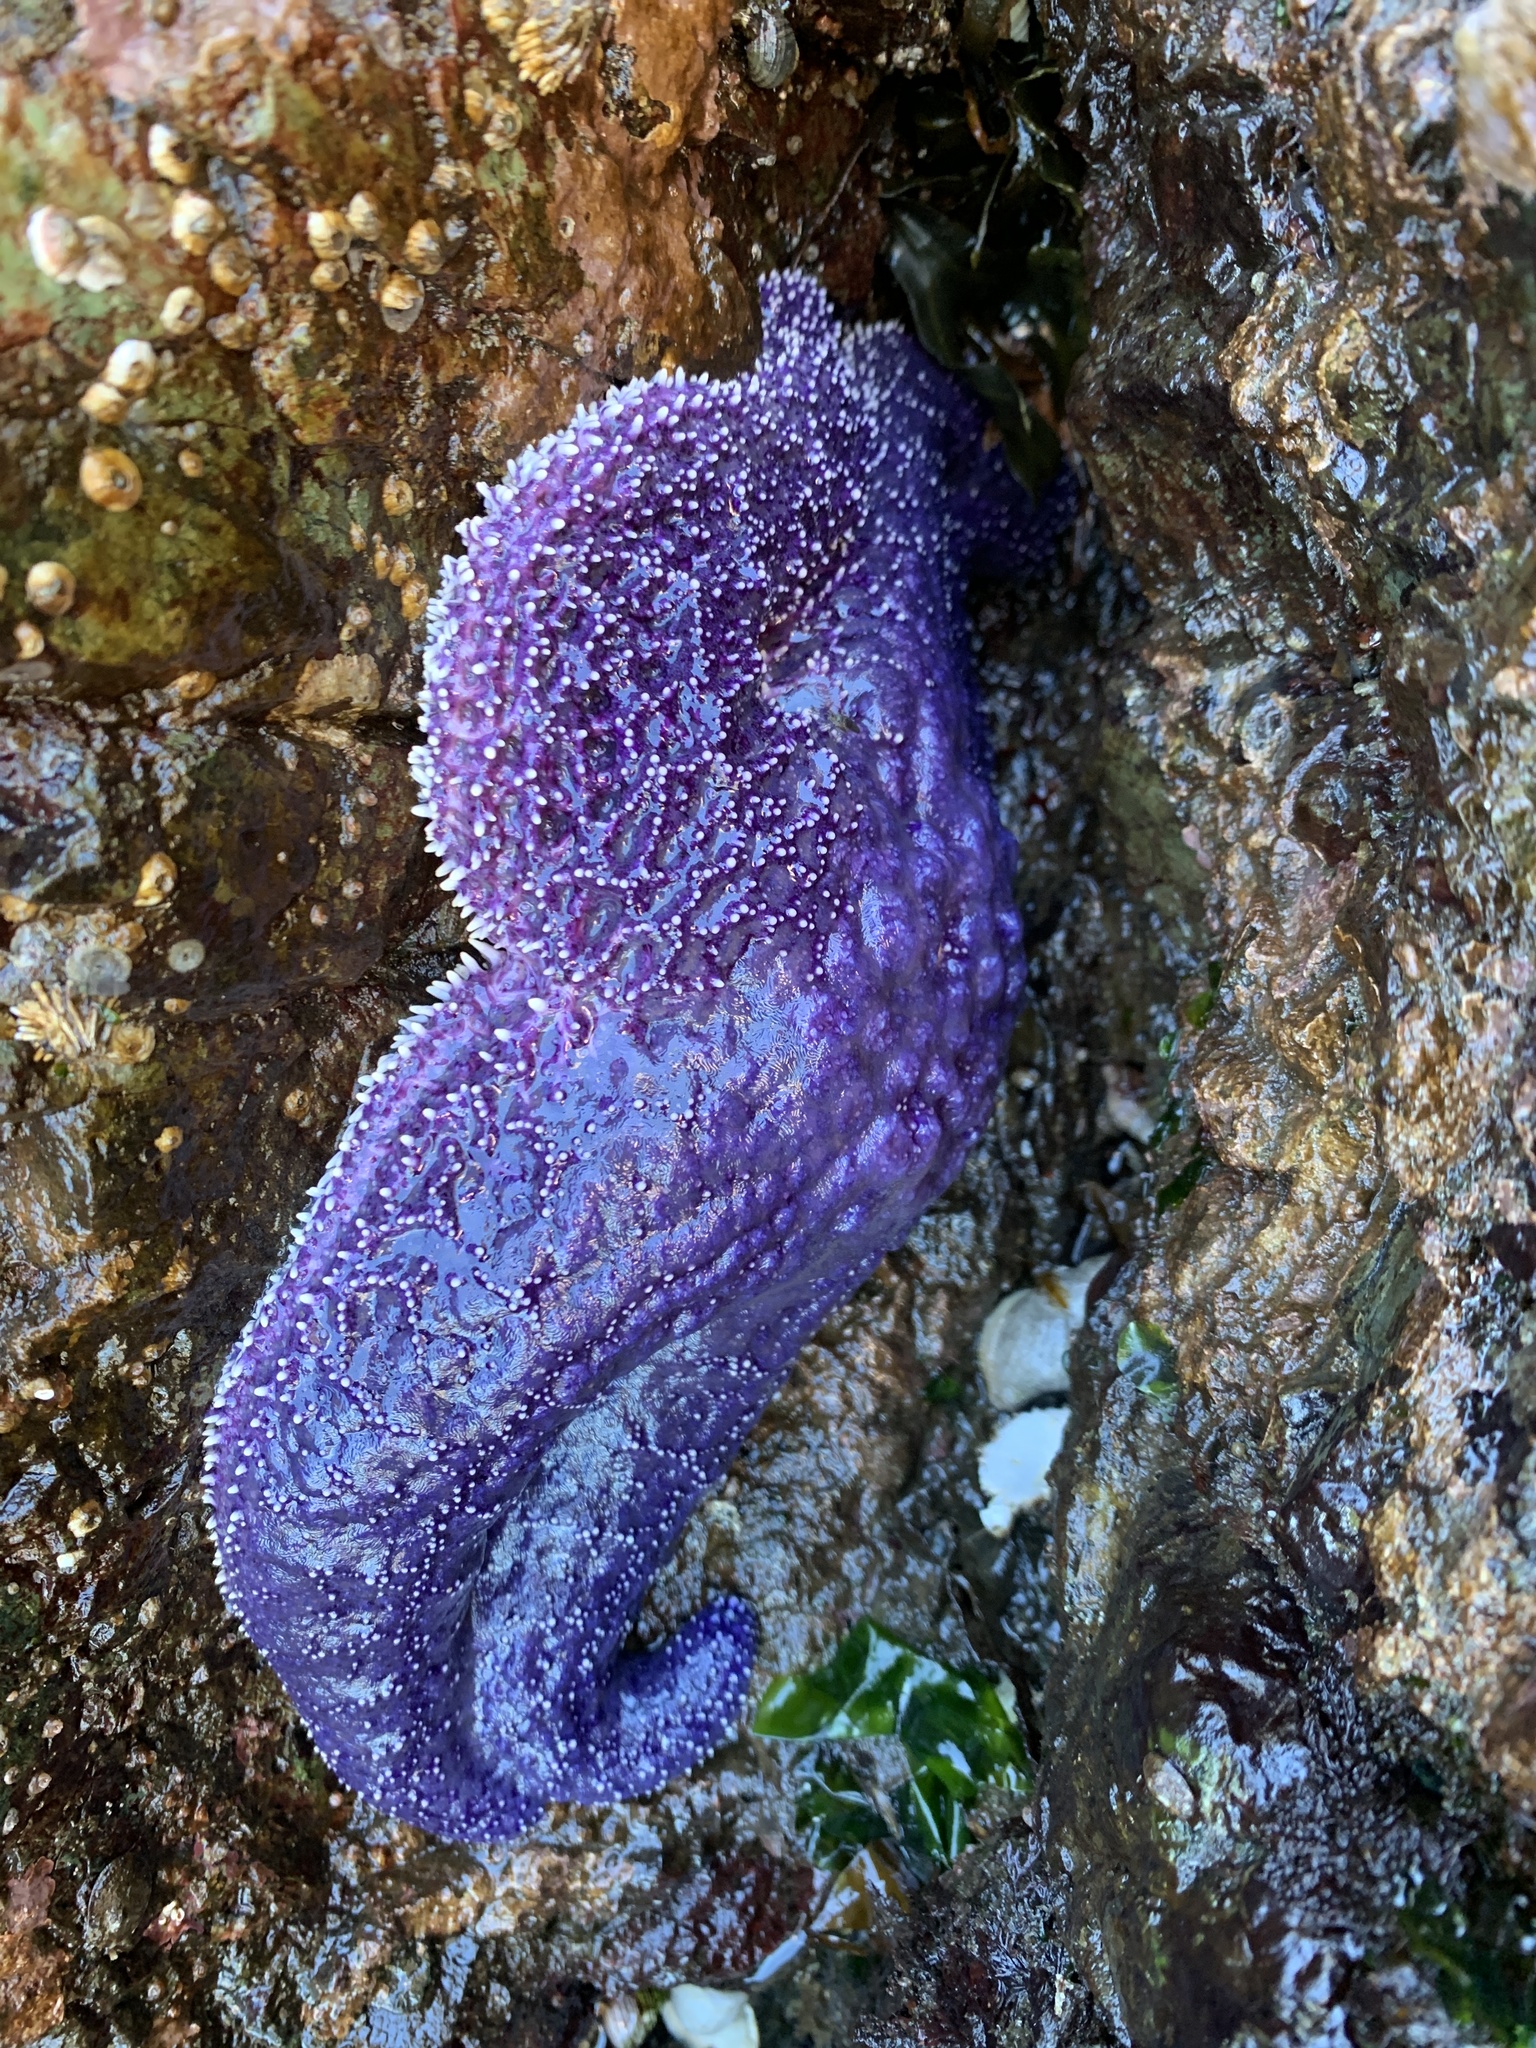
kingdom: Animalia
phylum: Echinodermata
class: Asteroidea
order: Forcipulatida
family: Asteriidae
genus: Pisaster
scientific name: Pisaster ochraceus
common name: Ochre stars
